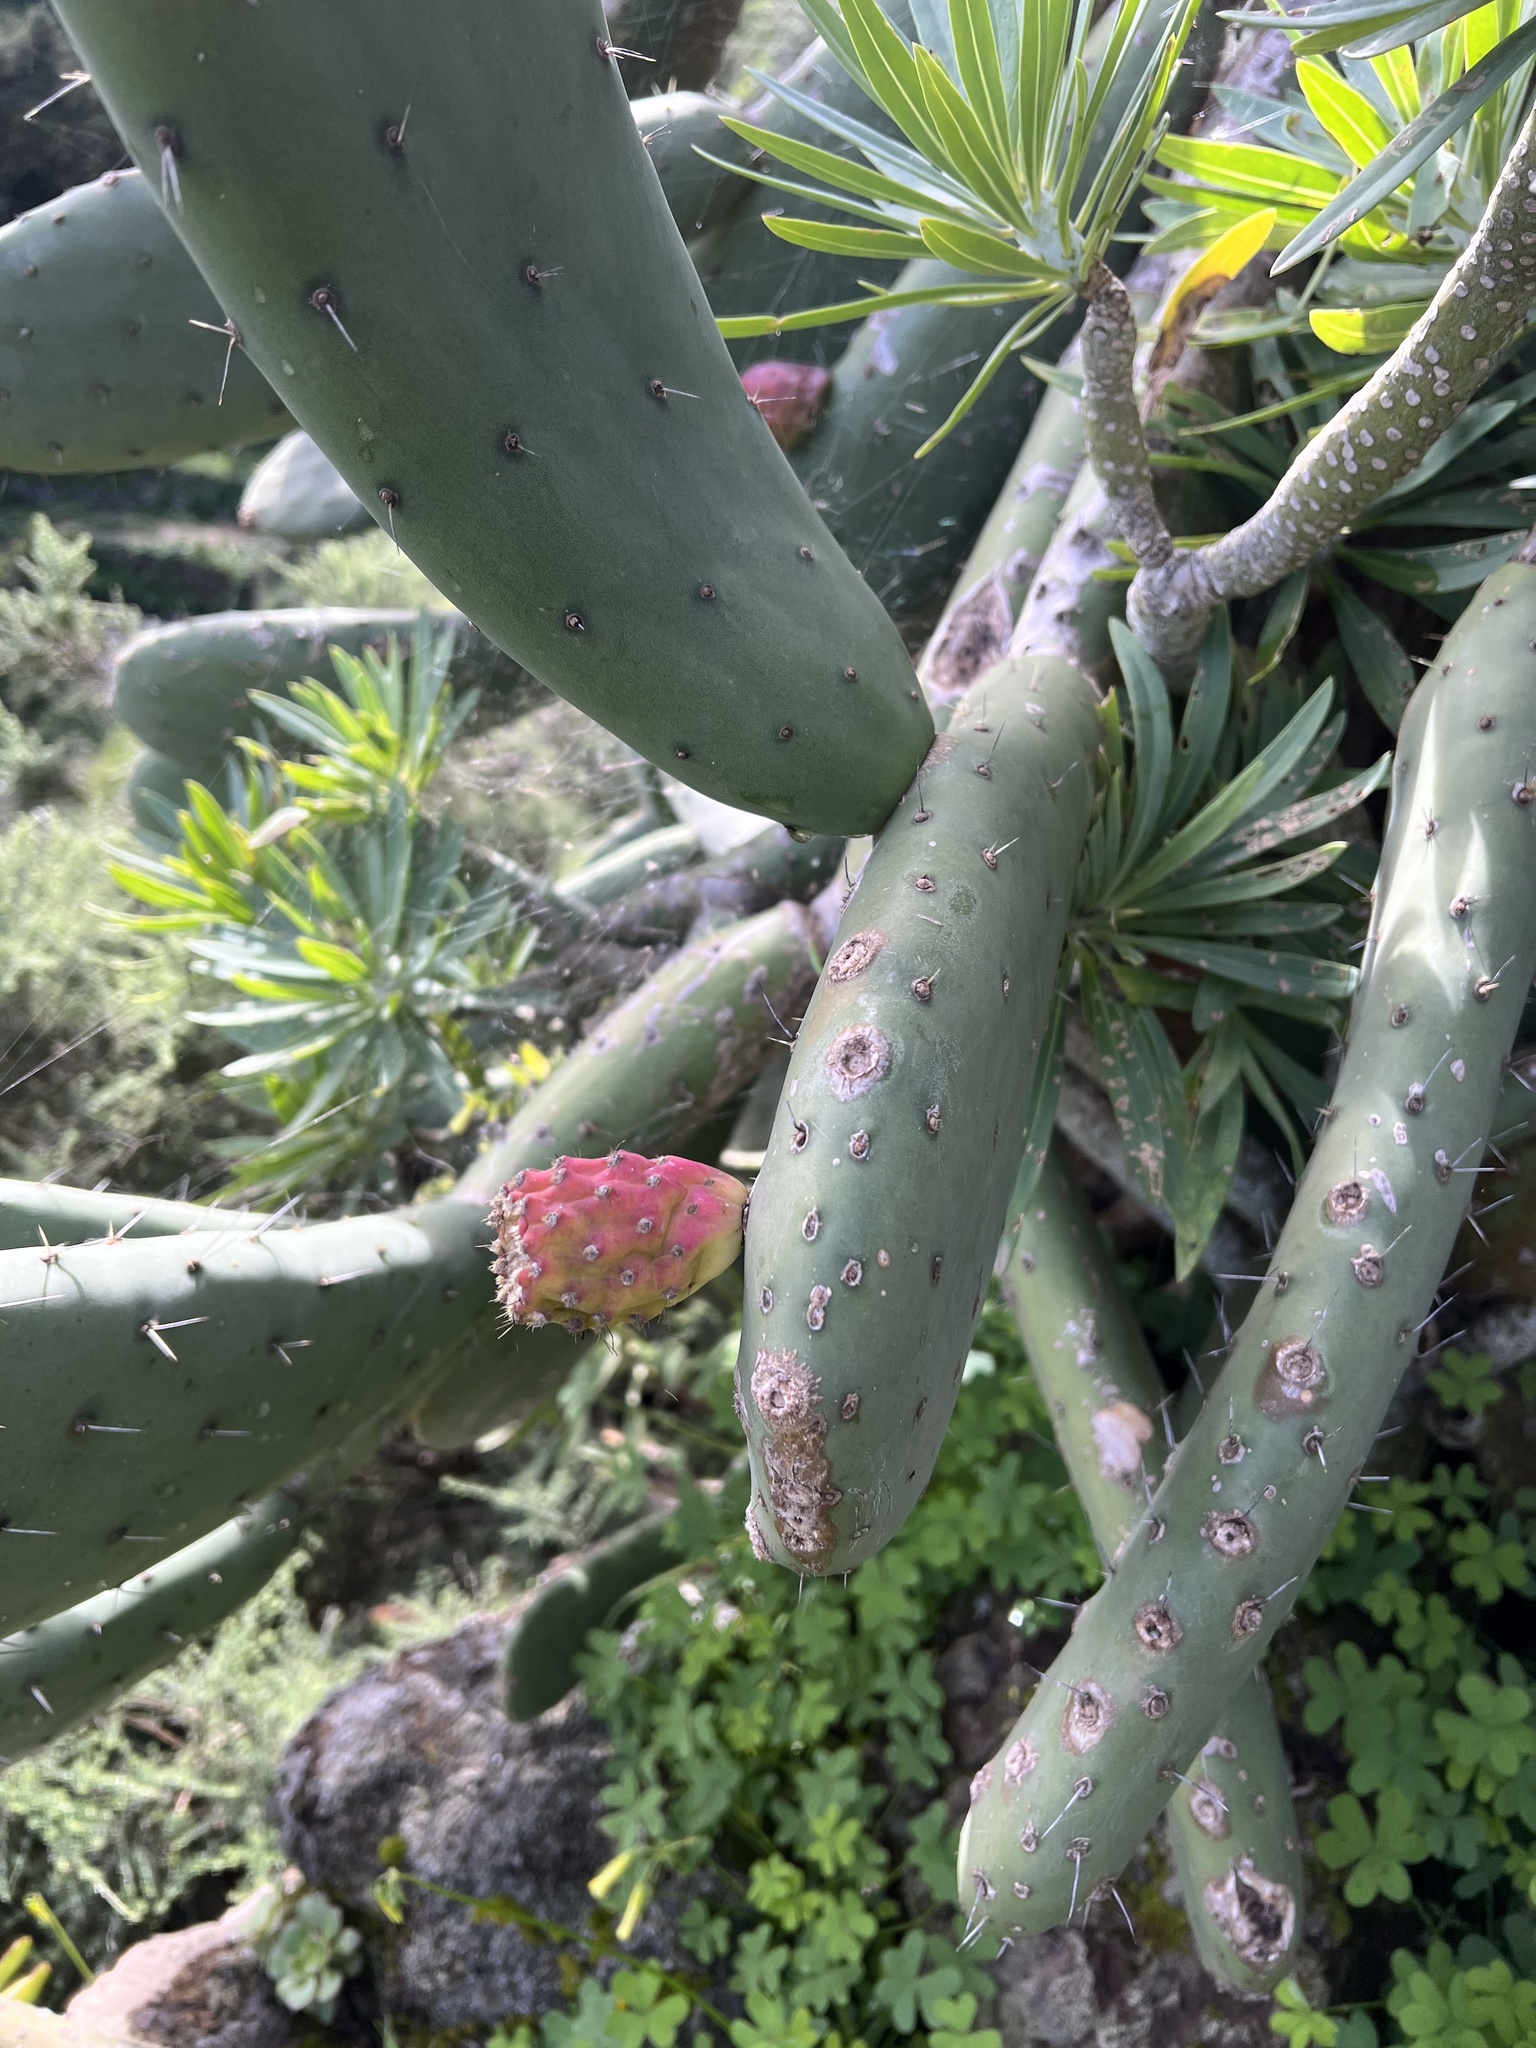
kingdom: Plantae
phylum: Tracheophyta
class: Magnoliopsida
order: Caryophyllales
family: Cactaceae
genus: Opuntia
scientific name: Opuntia ficus-indica
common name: Barbary fig
